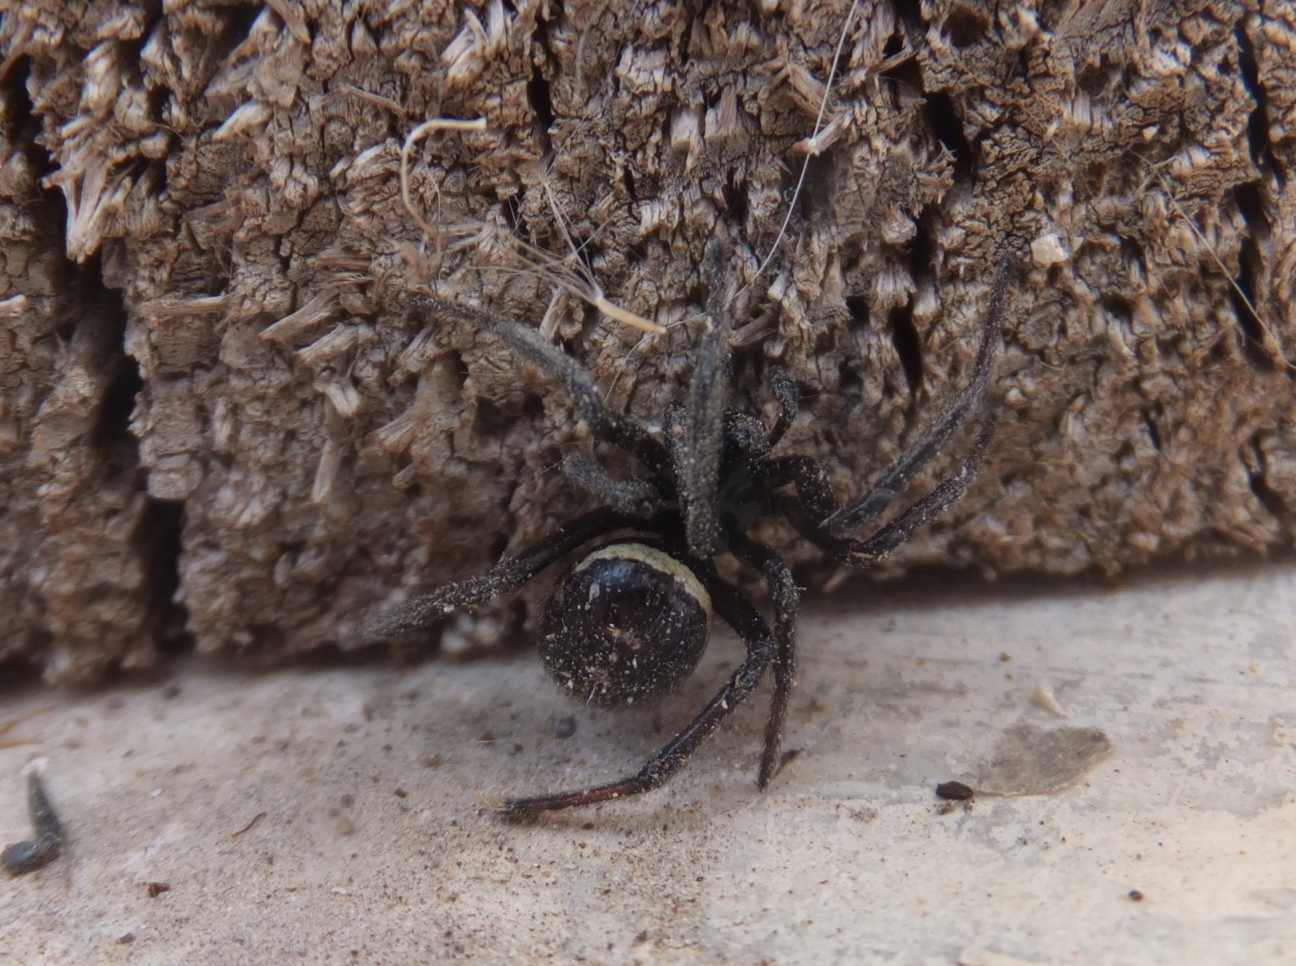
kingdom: Animalia
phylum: Arthropoda
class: Arachnida
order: Araneae
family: Theridiidae
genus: Steatoda
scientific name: Steatoda paykulliana
